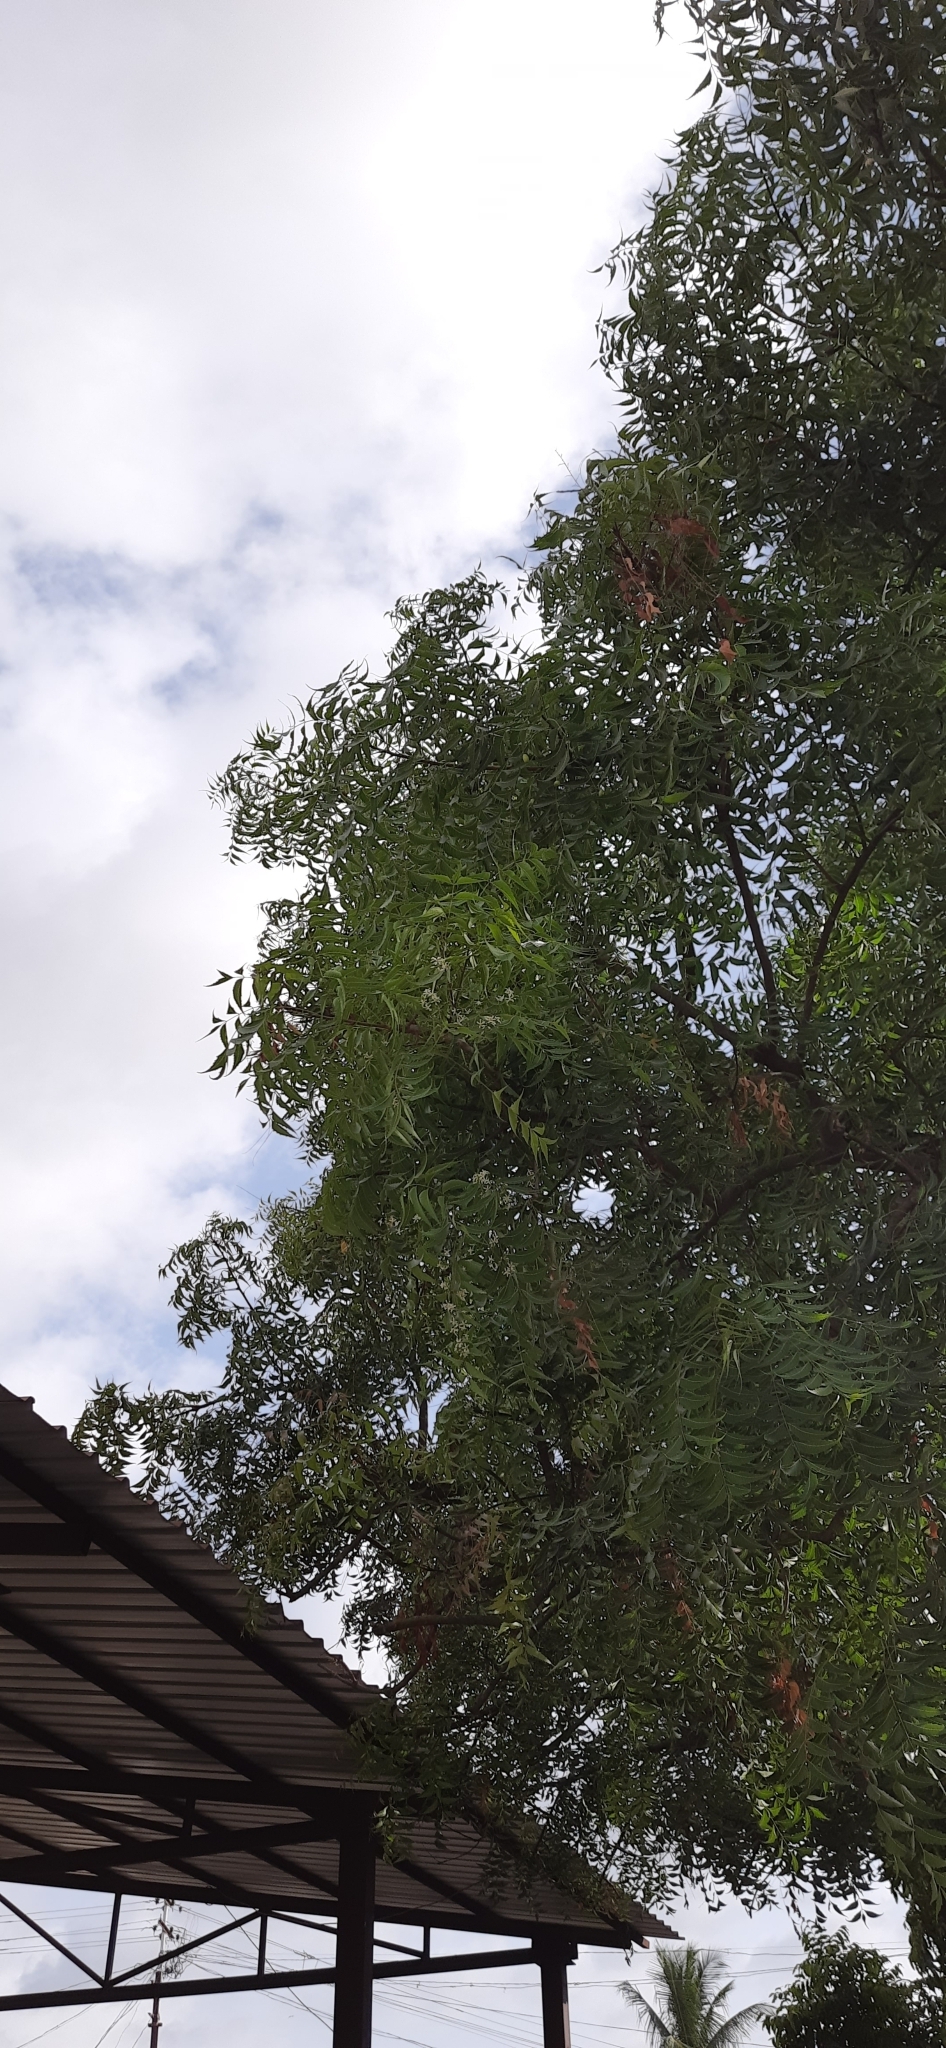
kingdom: Plantae
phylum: Tracheophyta
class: Magnoliopsida
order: Sapindales
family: Meliaceae
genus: Azadirachta
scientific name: Azadirachta indica
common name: Neem
